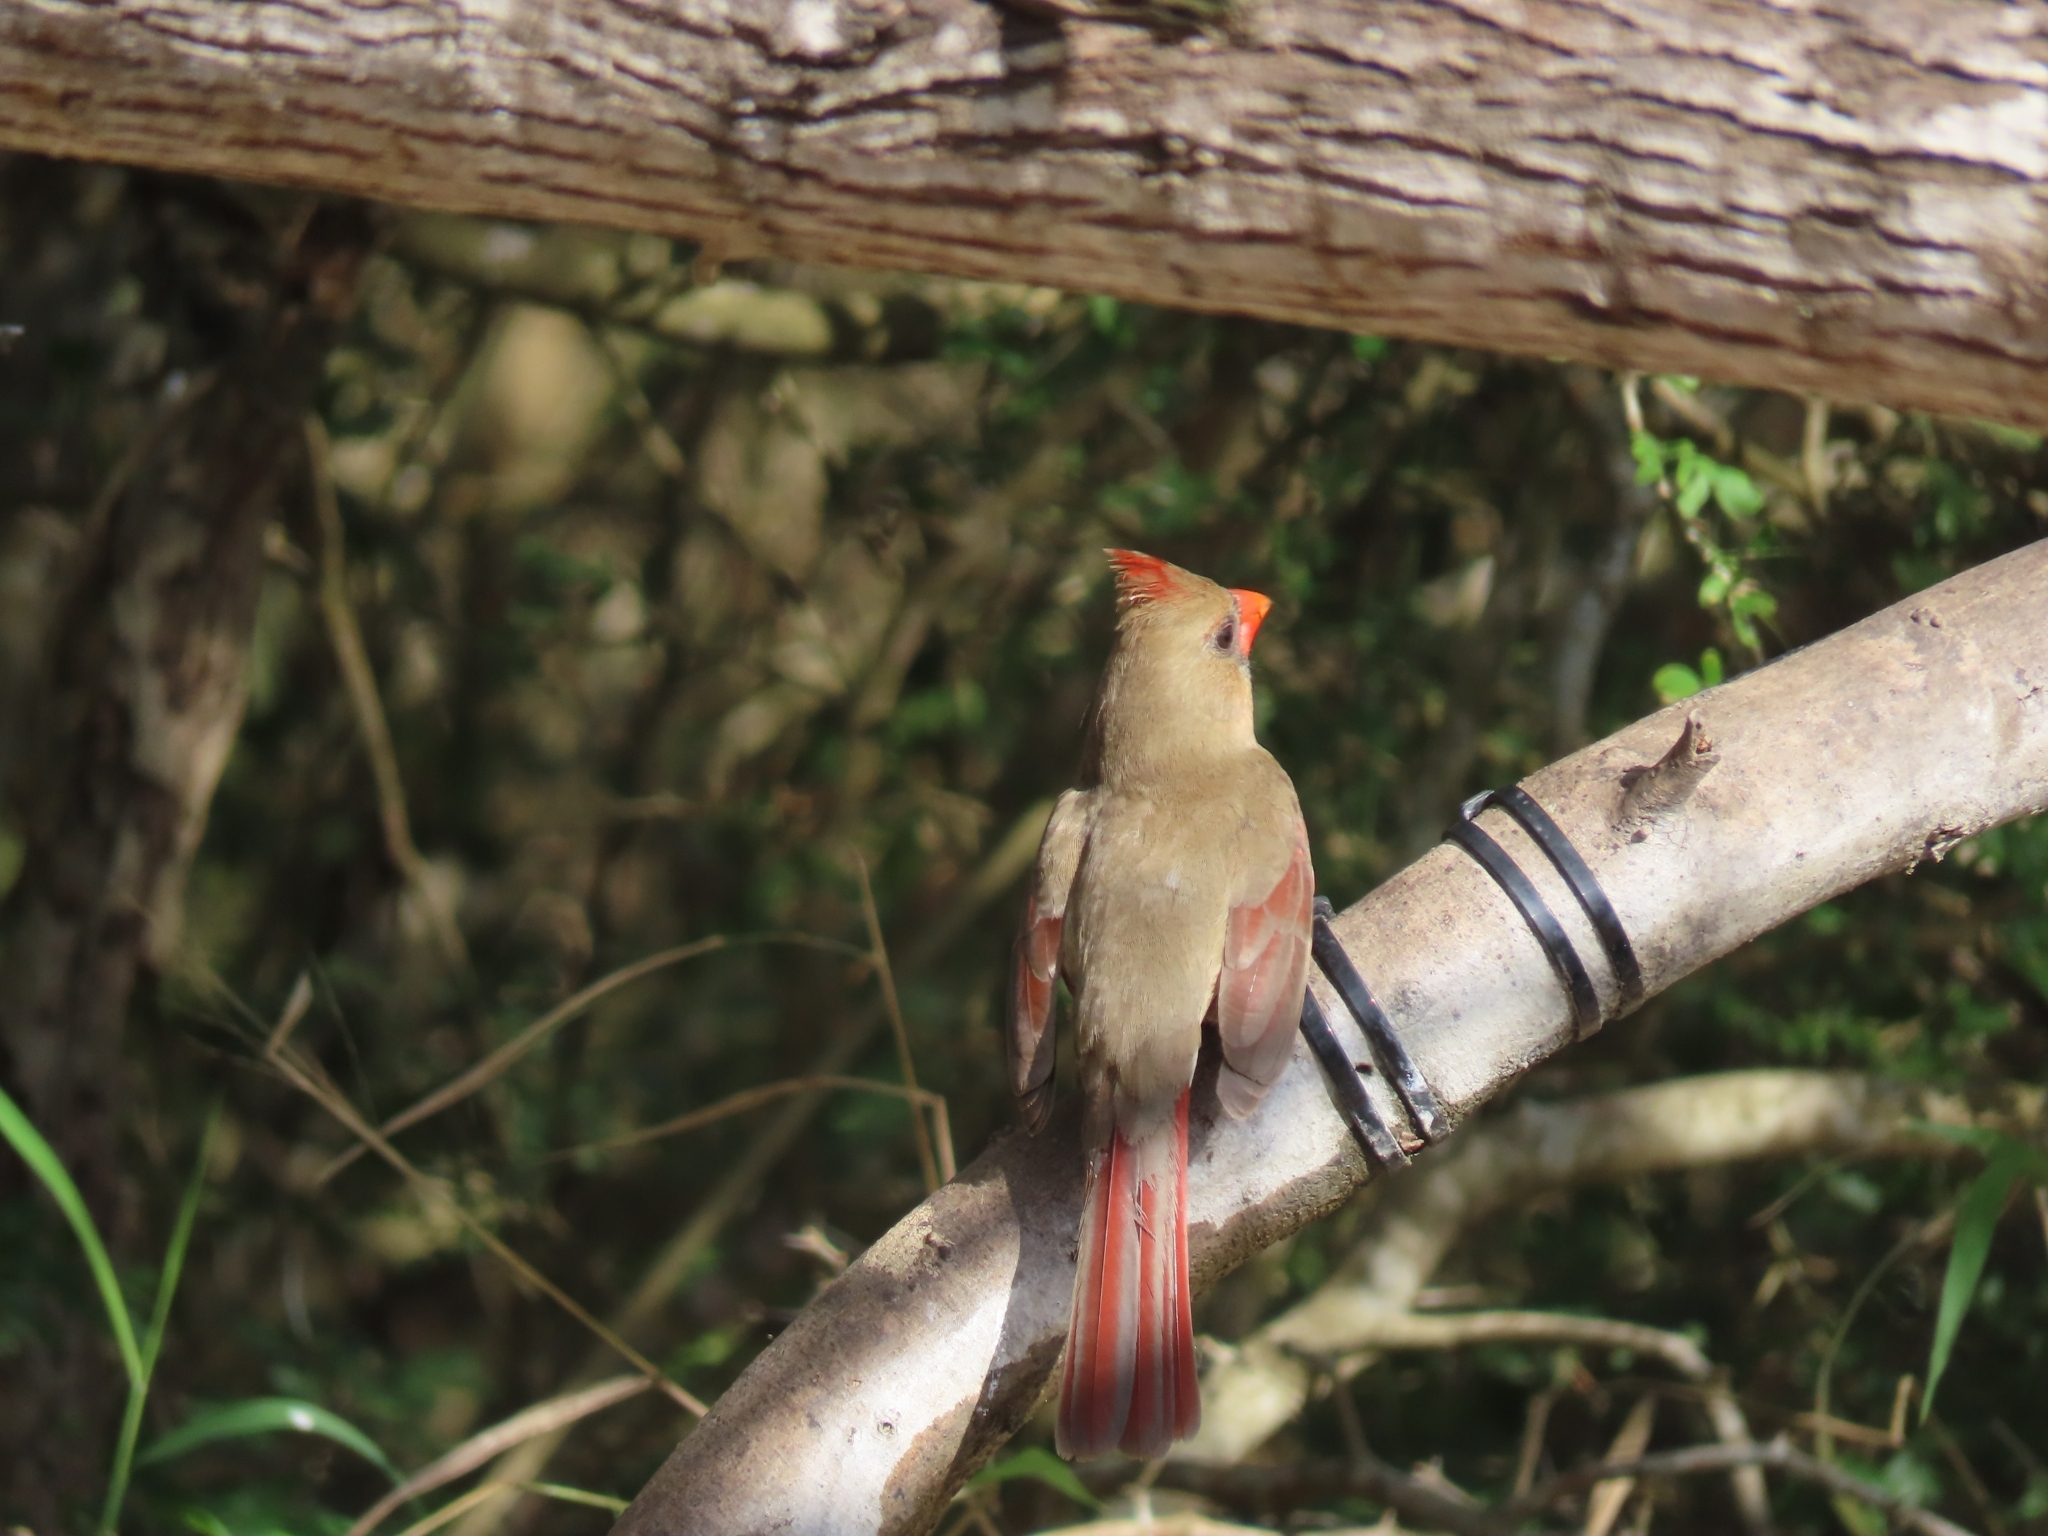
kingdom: Animalia
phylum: Chordata
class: Aves
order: Passeriformes
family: Cardinalidae
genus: Cardinalis
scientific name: Cardinalis cardinalis
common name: Northern cardinal
